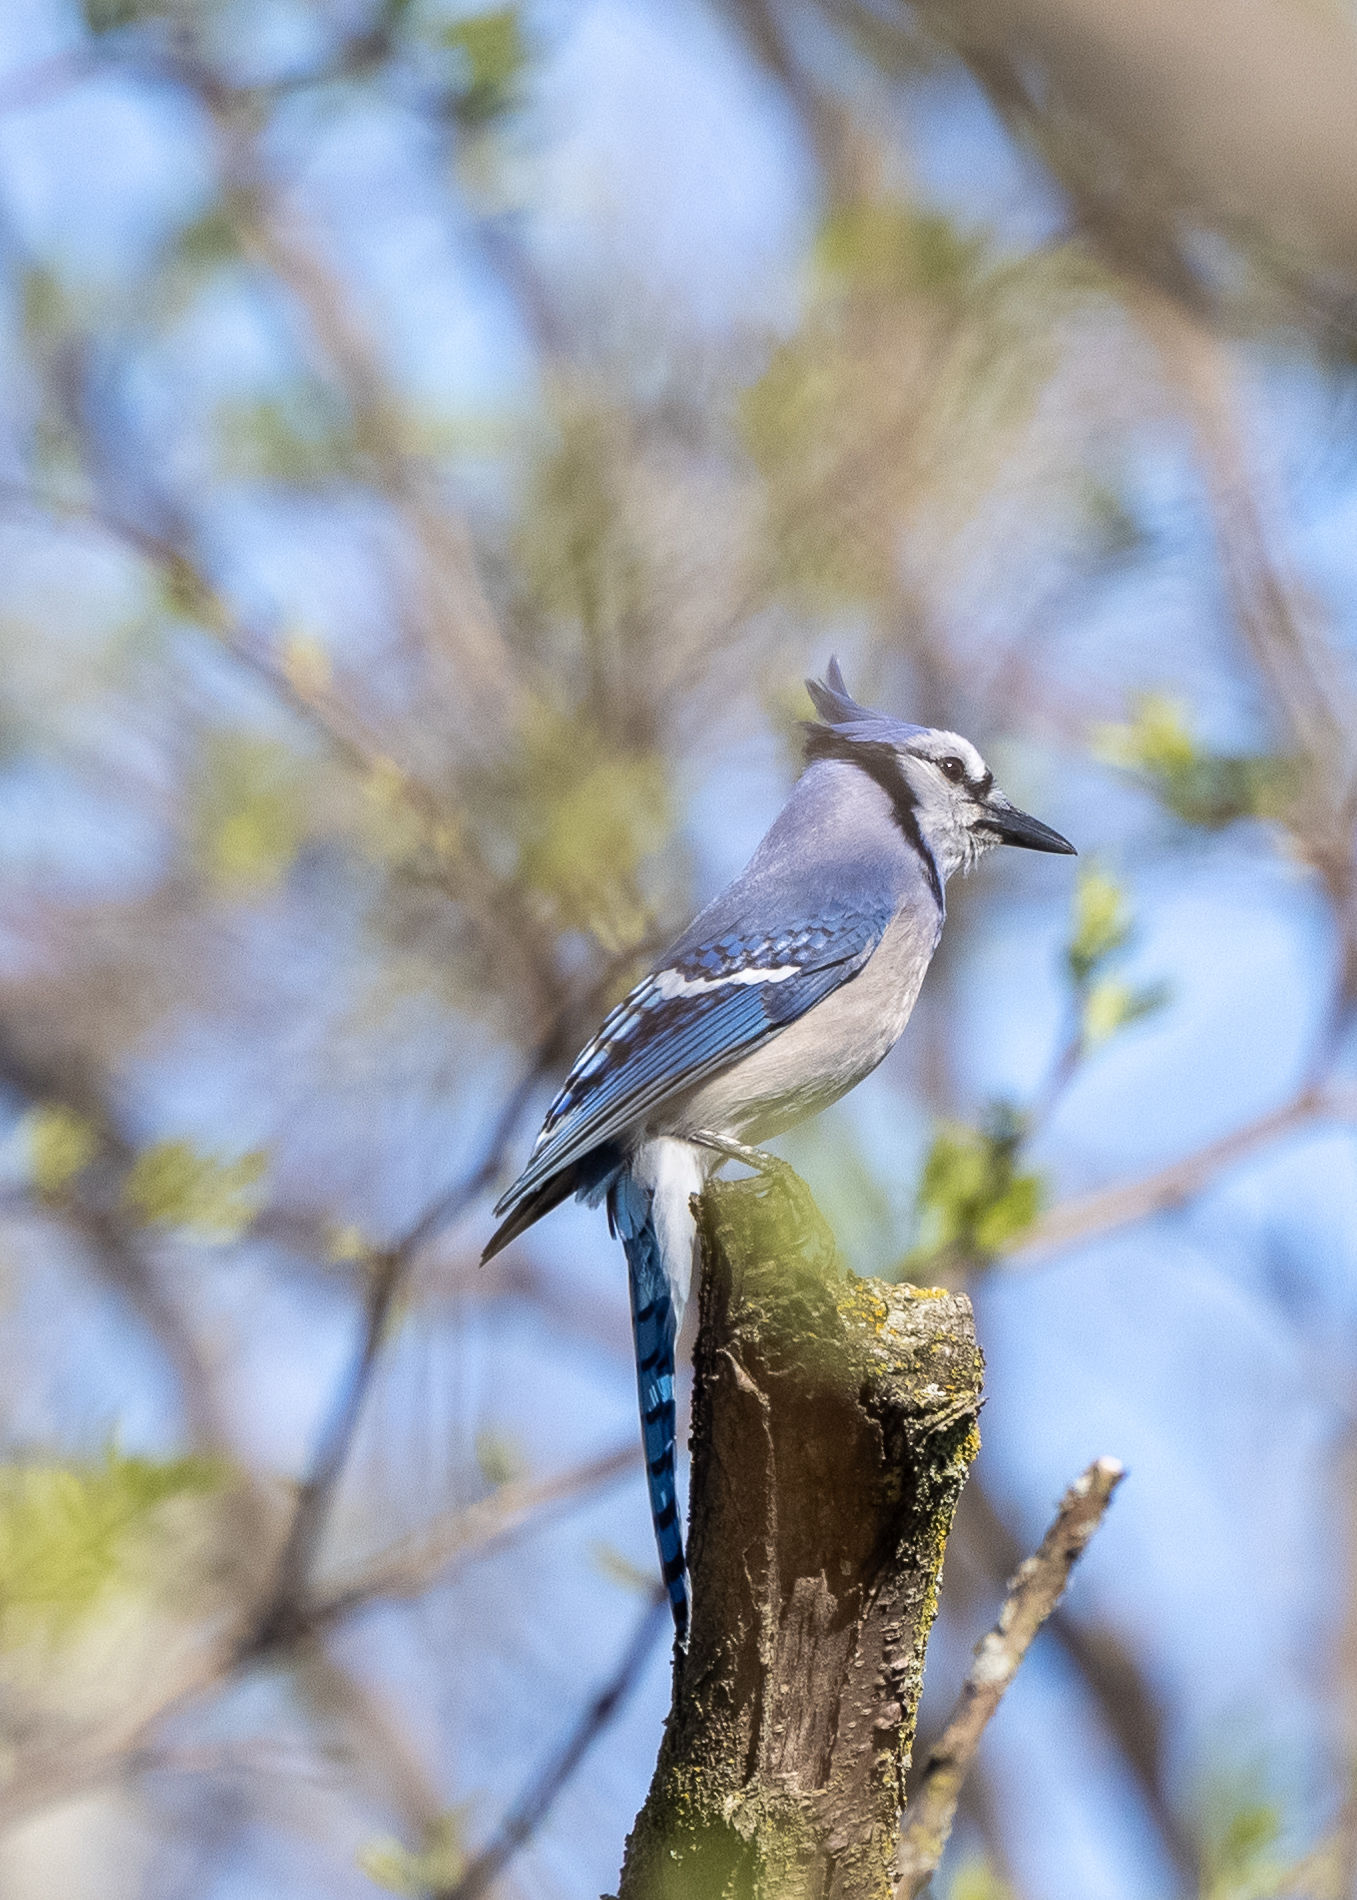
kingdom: Animalia
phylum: Chordata
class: Aves
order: Passeriformes
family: Corvidae
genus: Cyanocitta
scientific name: Cyanocitta cristata
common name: Blue jay
